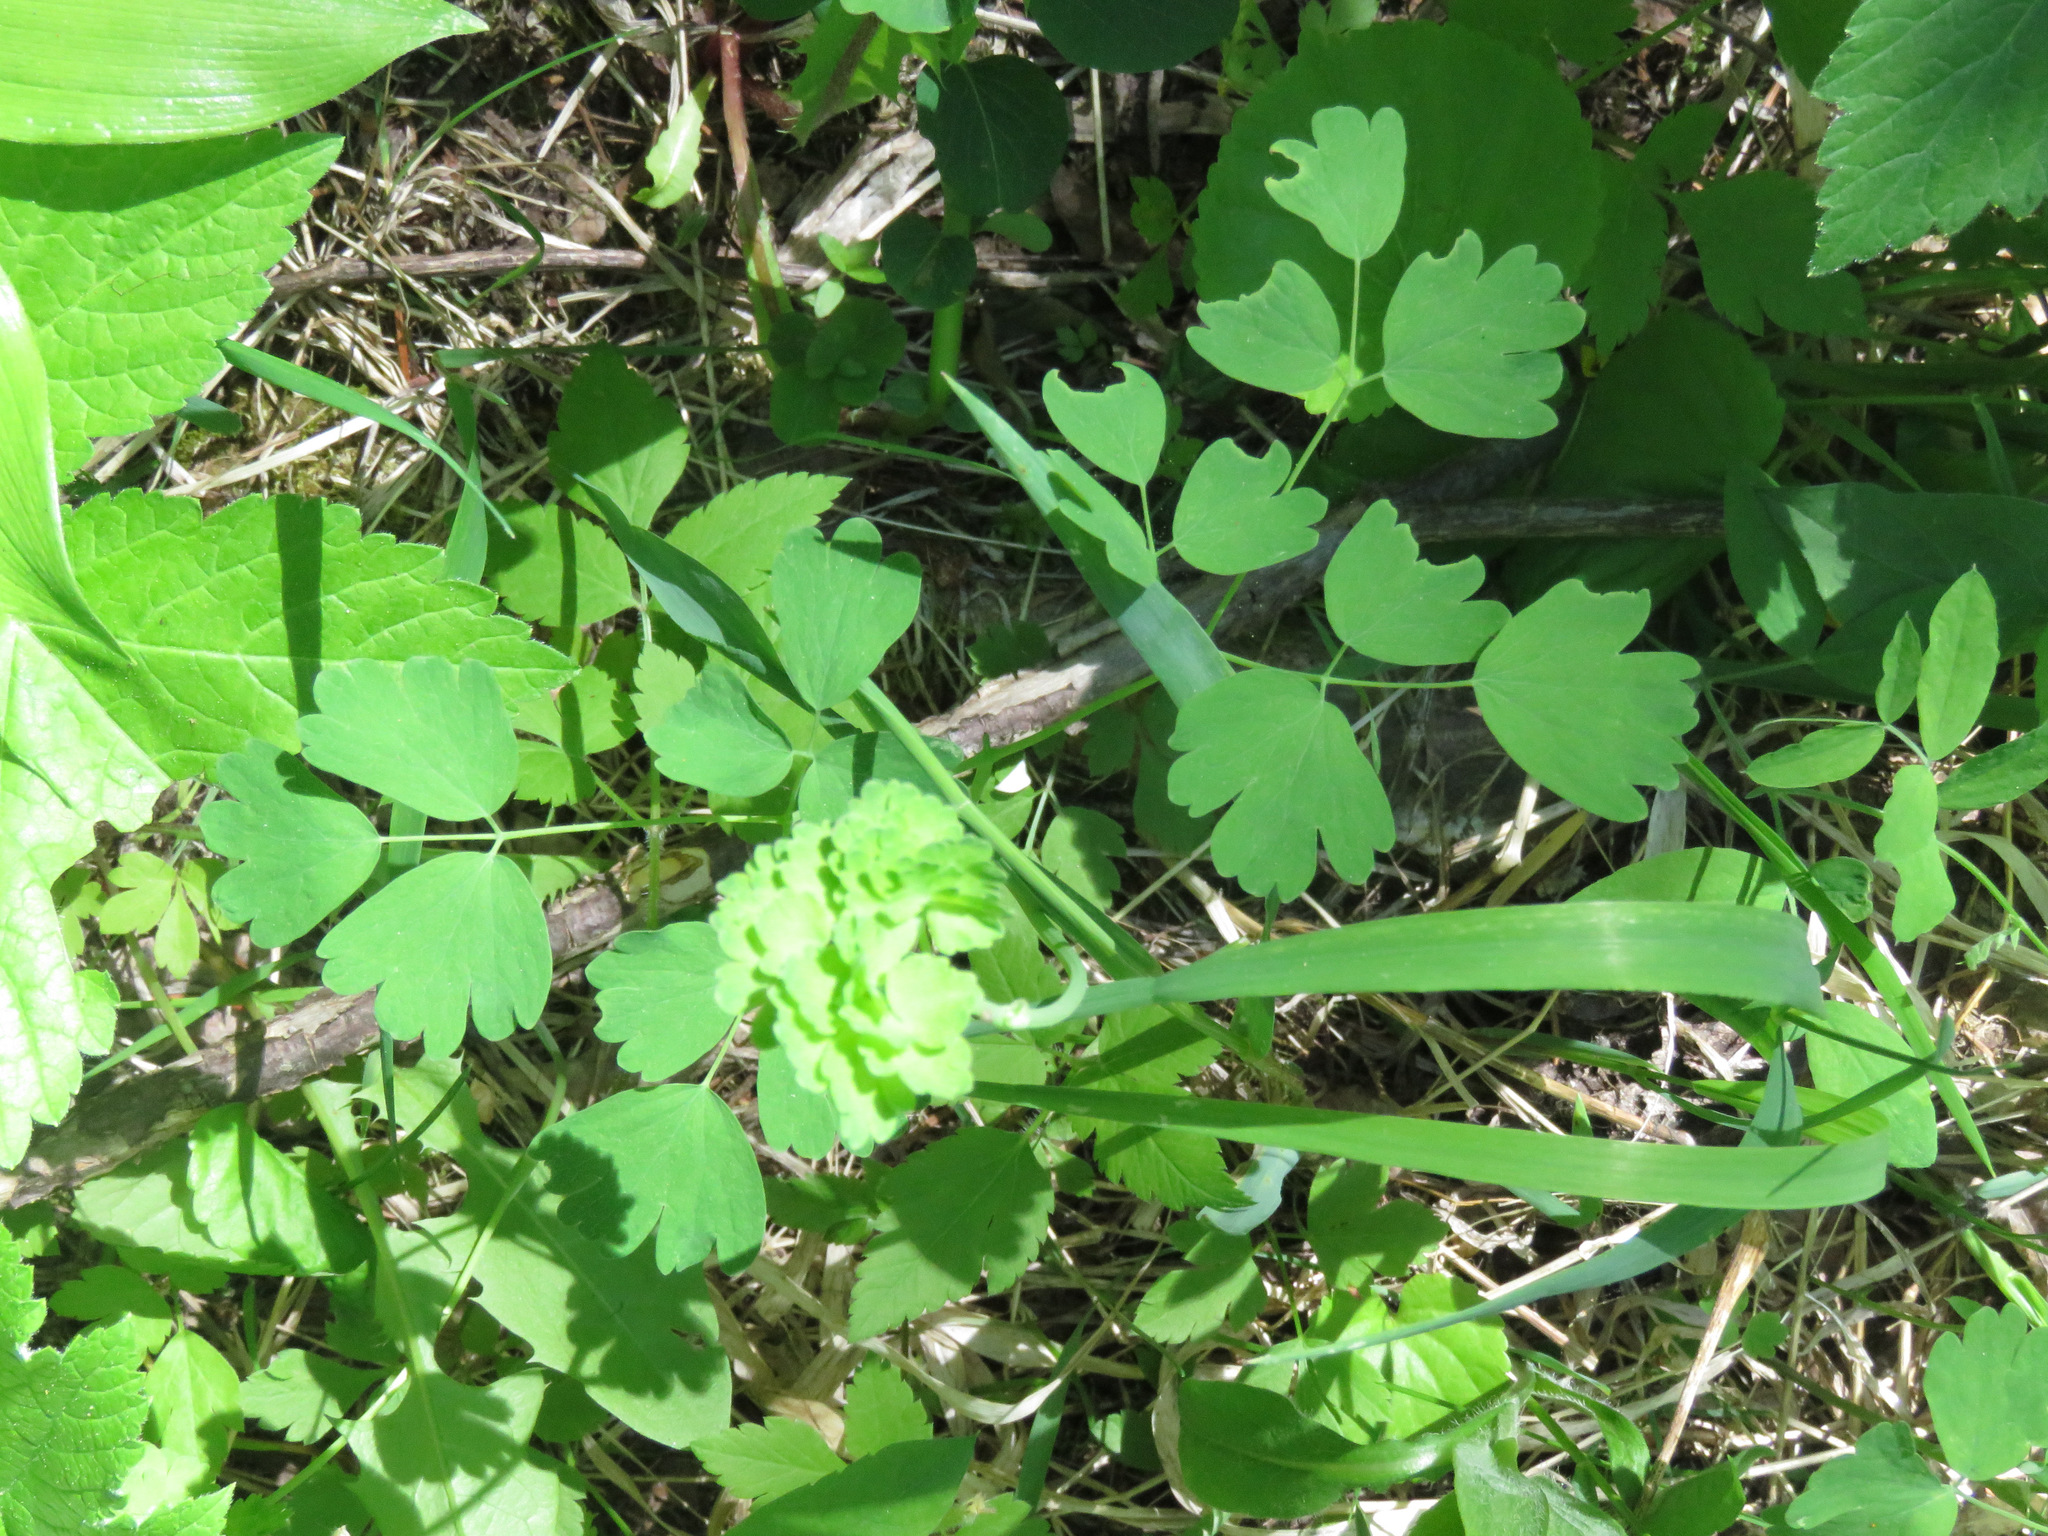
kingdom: Plantae
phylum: Tracheophyta
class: Magnoliopsida
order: Ranunculales
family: Ranunculaceae
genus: Thalictrum
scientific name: Thalictrum occidentale
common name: Western meadow-rue
